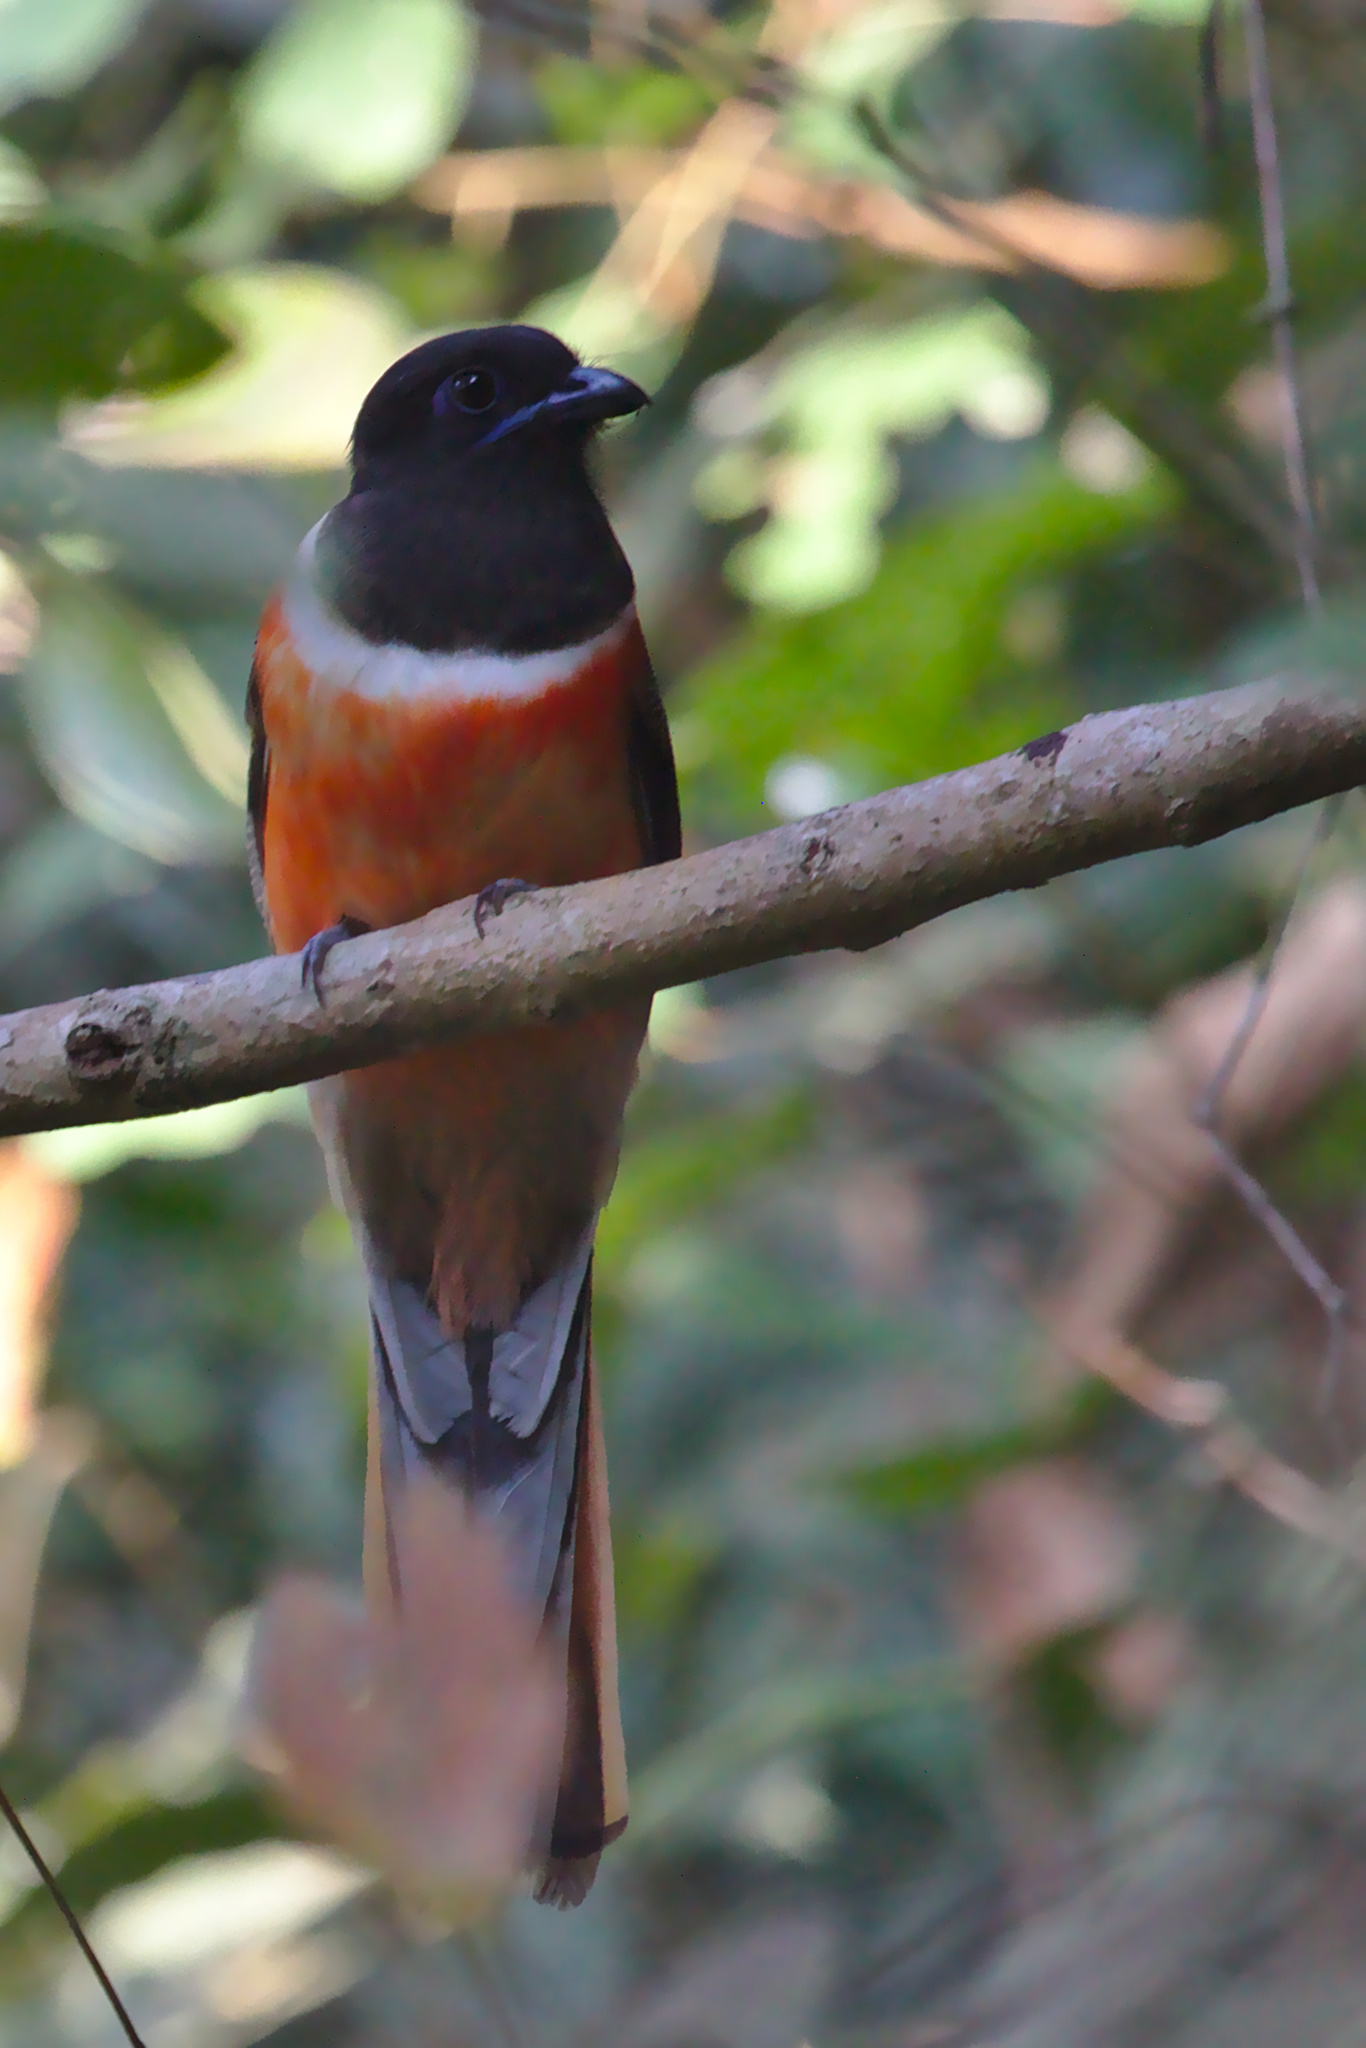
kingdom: Animalia
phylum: Chordata
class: Aves
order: Trogoniformes
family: Trogonidae
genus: Harpactes
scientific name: Harpactes fasciatus
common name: Malabar trogon
